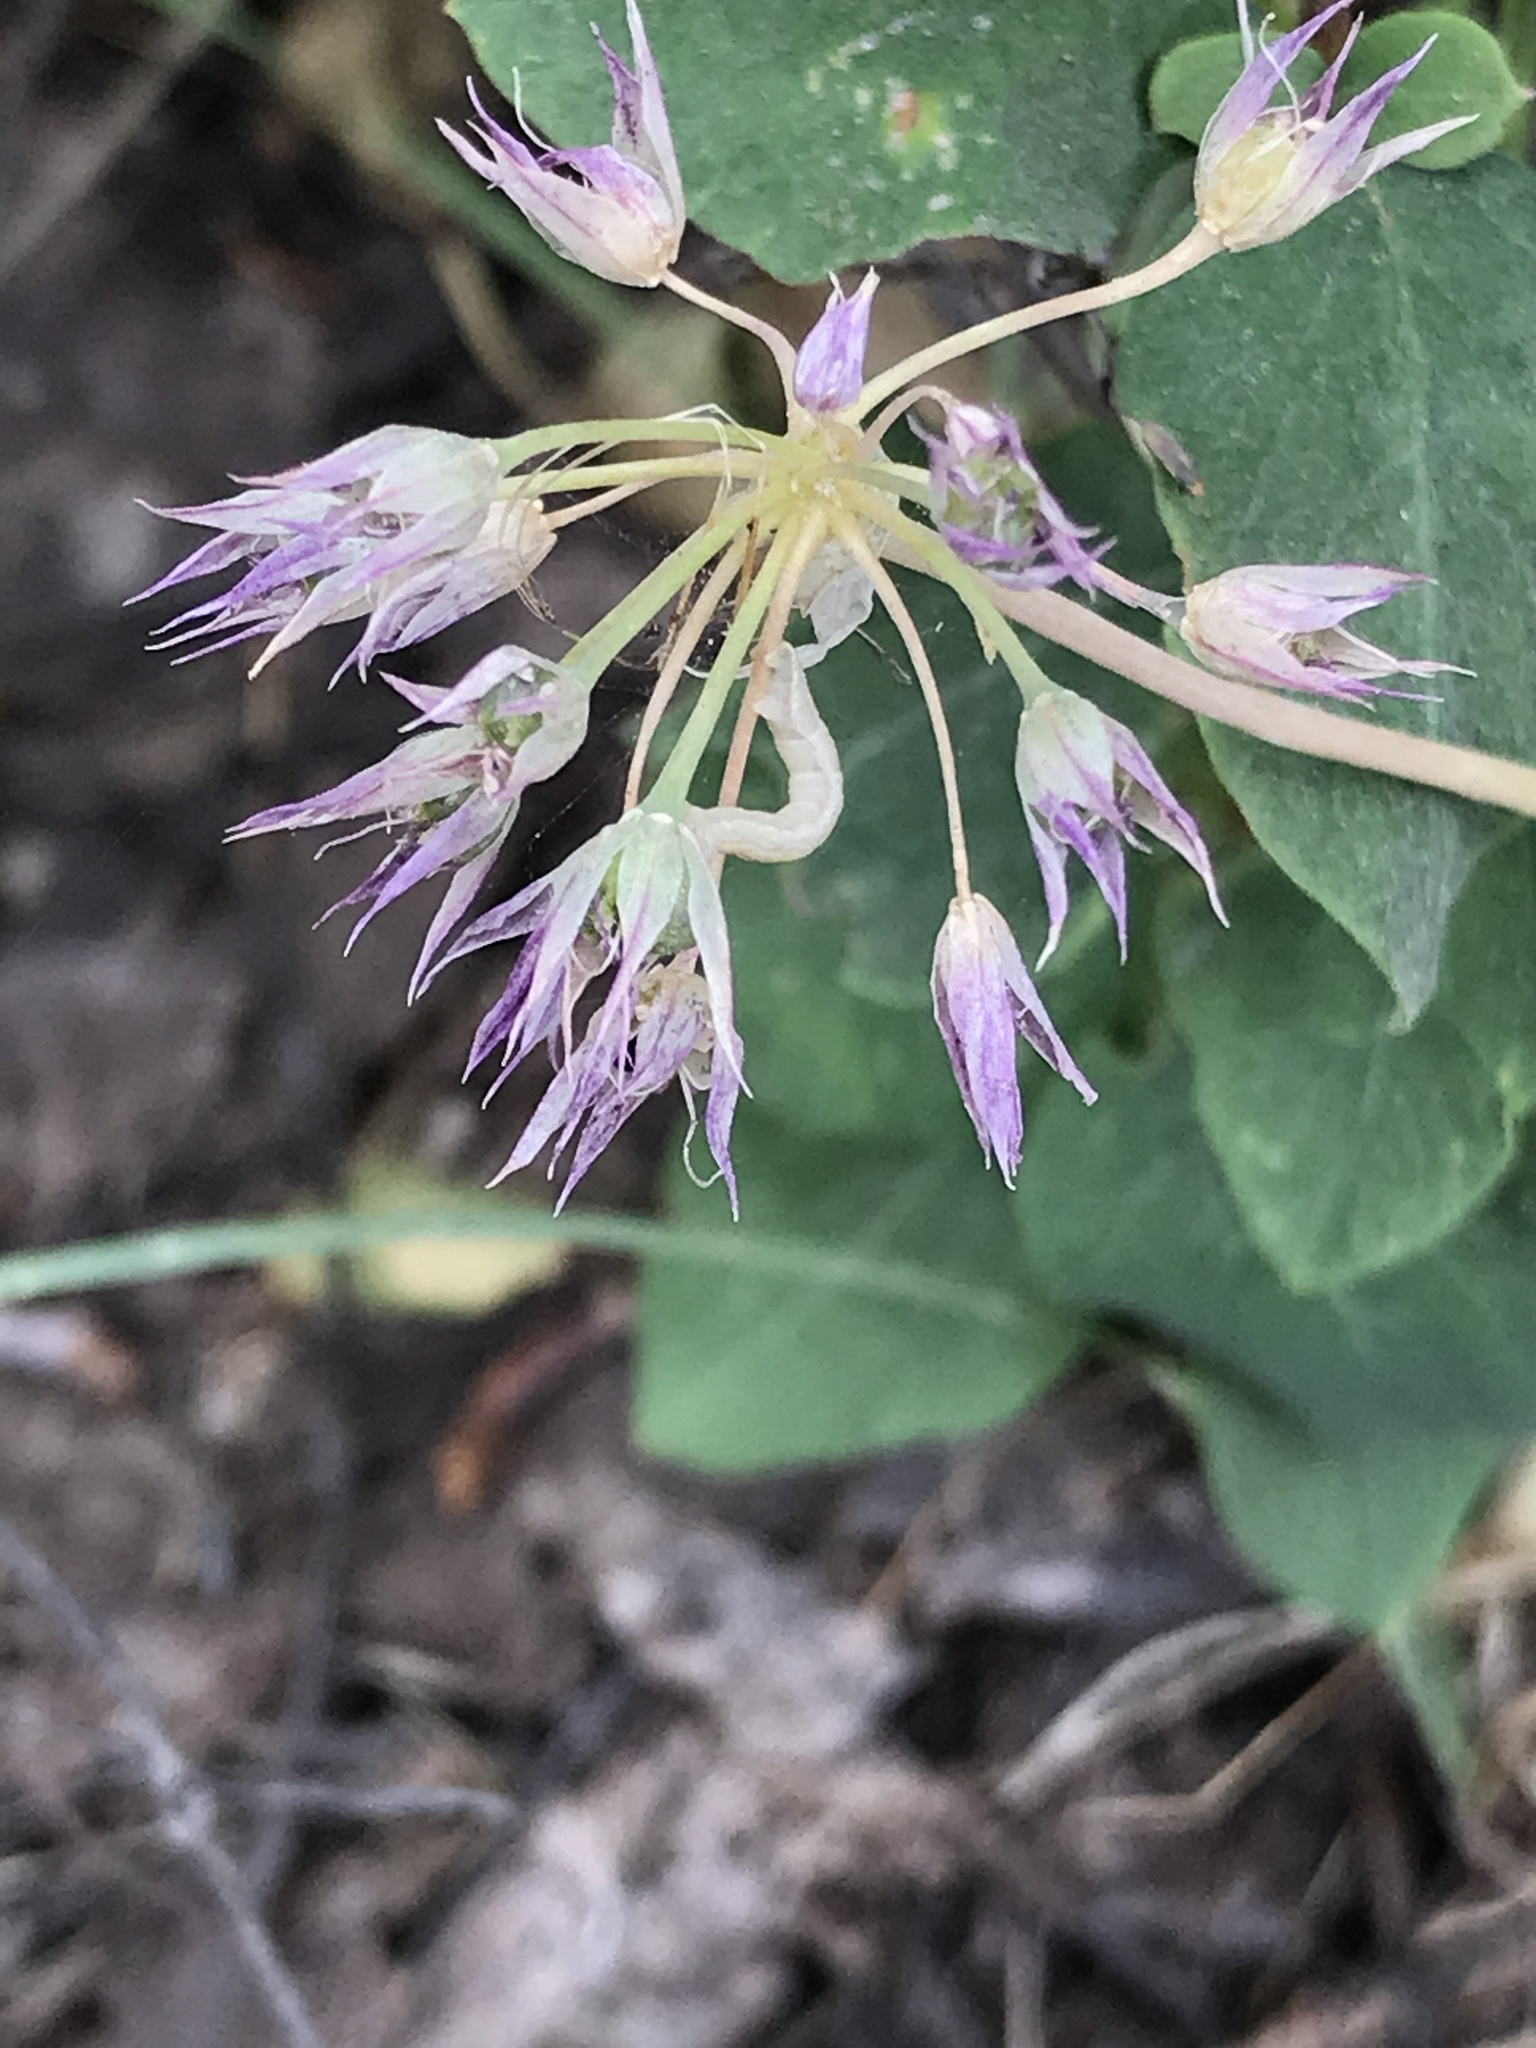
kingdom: Plantae
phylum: Tracheophyta
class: Liliopsida
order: Asparagales
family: Amaryllidaceae
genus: Allium
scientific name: Allium campanulatum
